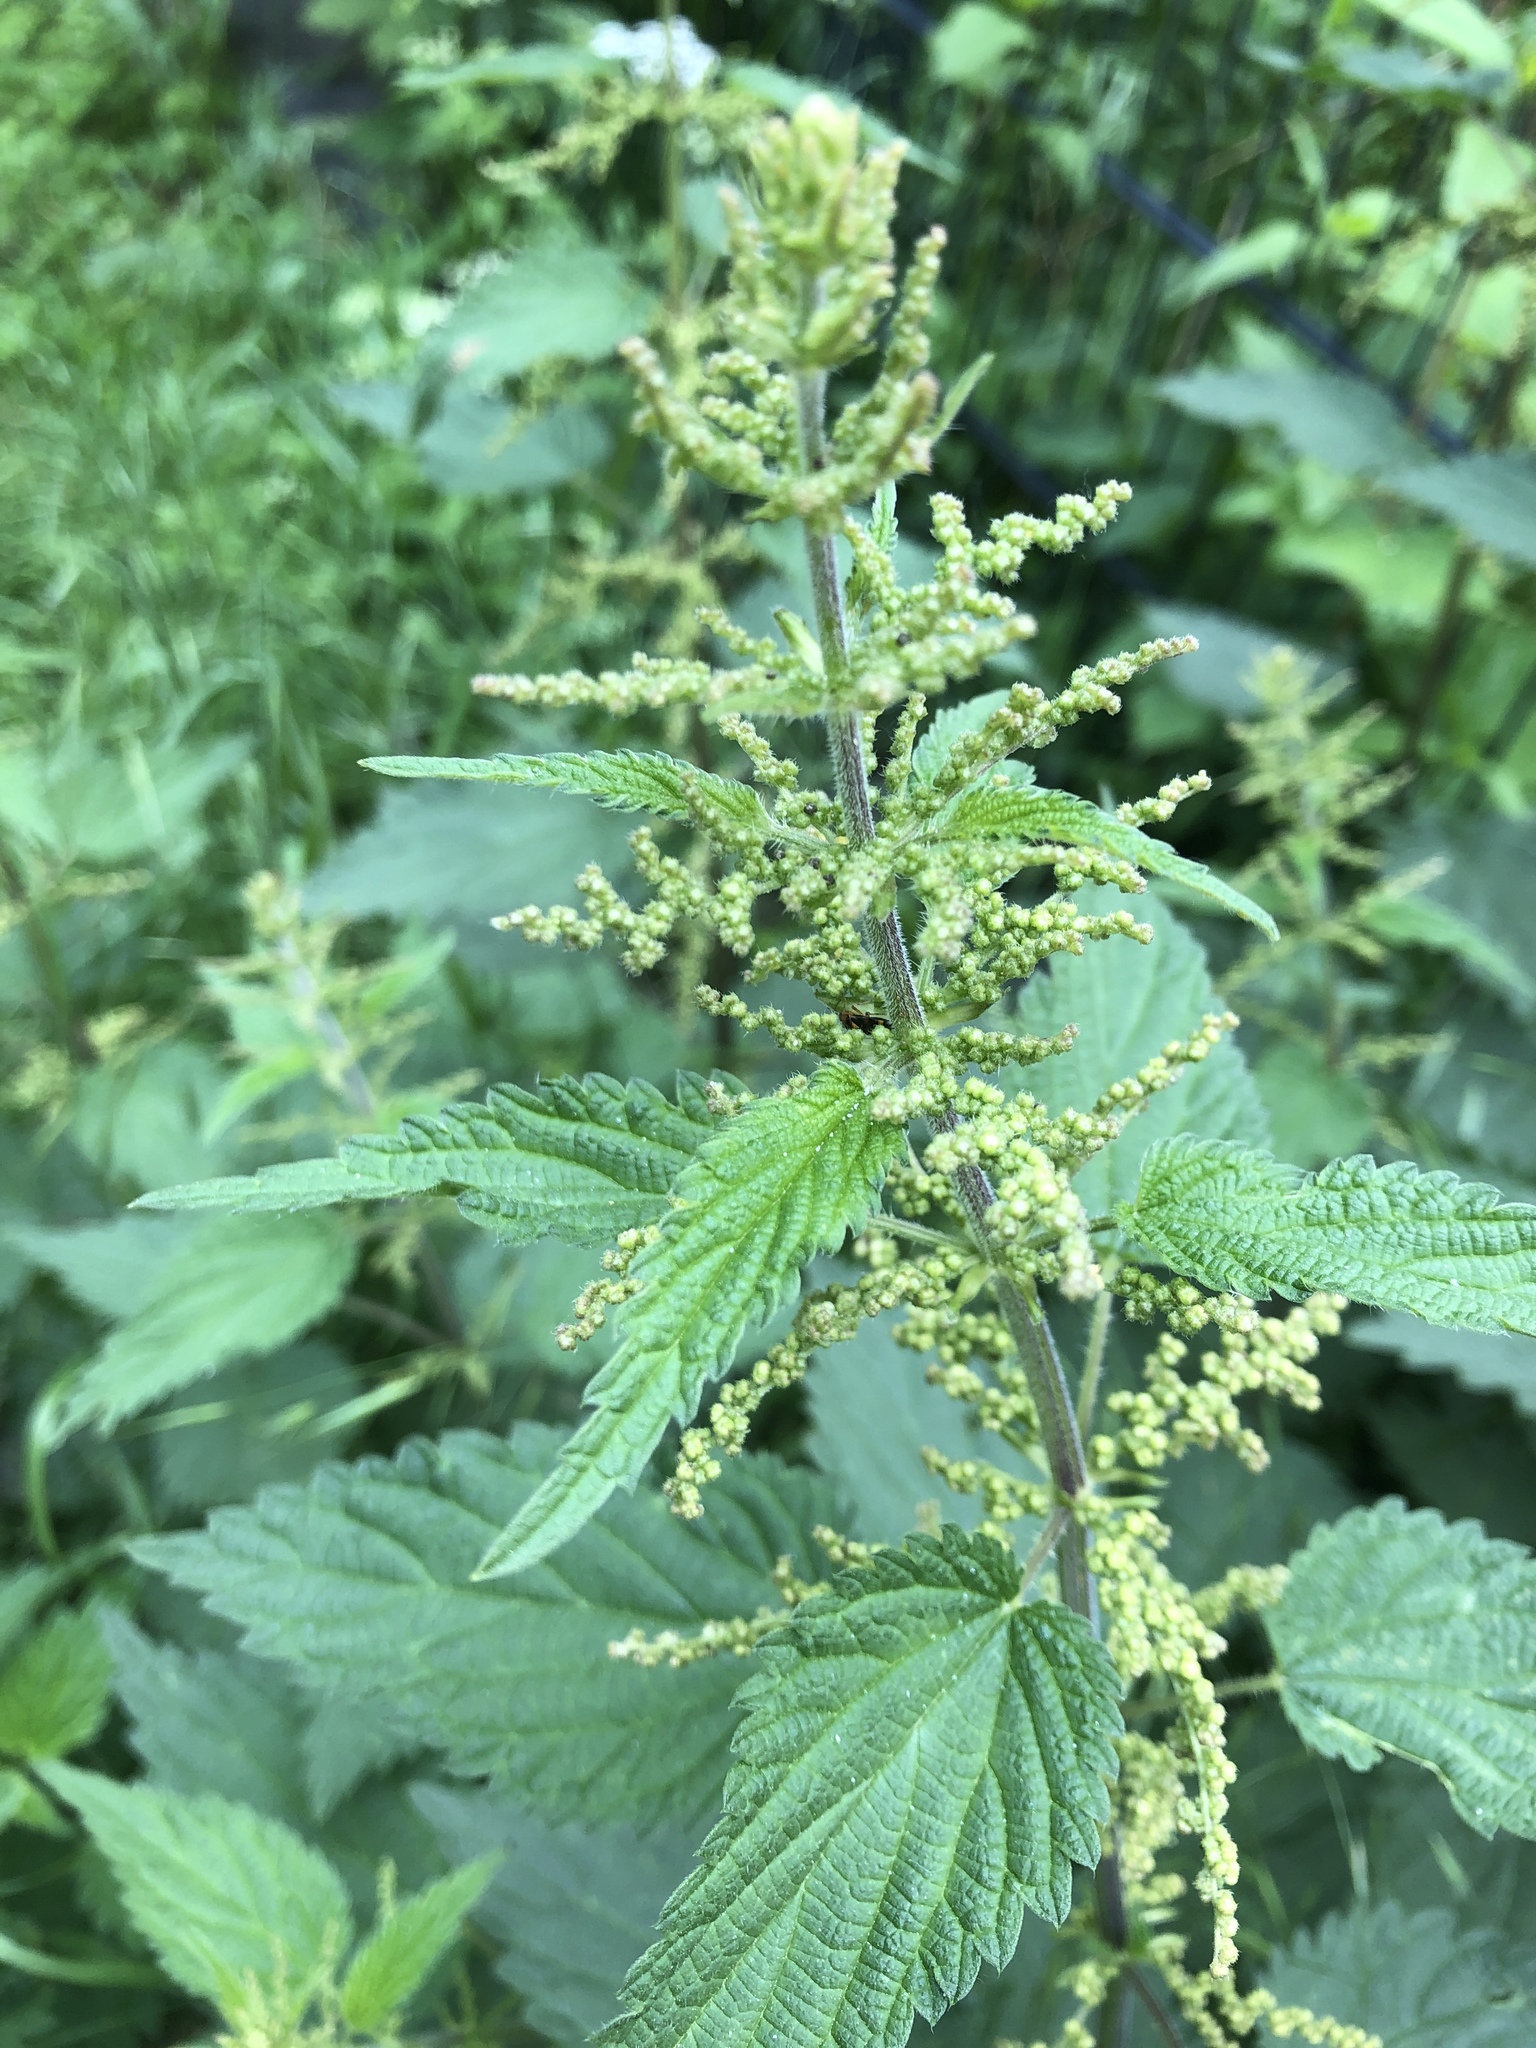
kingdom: Plantae
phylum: Tracheophyta
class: Magnoliopsida
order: Rosales
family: Urticaceae
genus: Urtica
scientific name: Urtica dioica
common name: Common nettle
